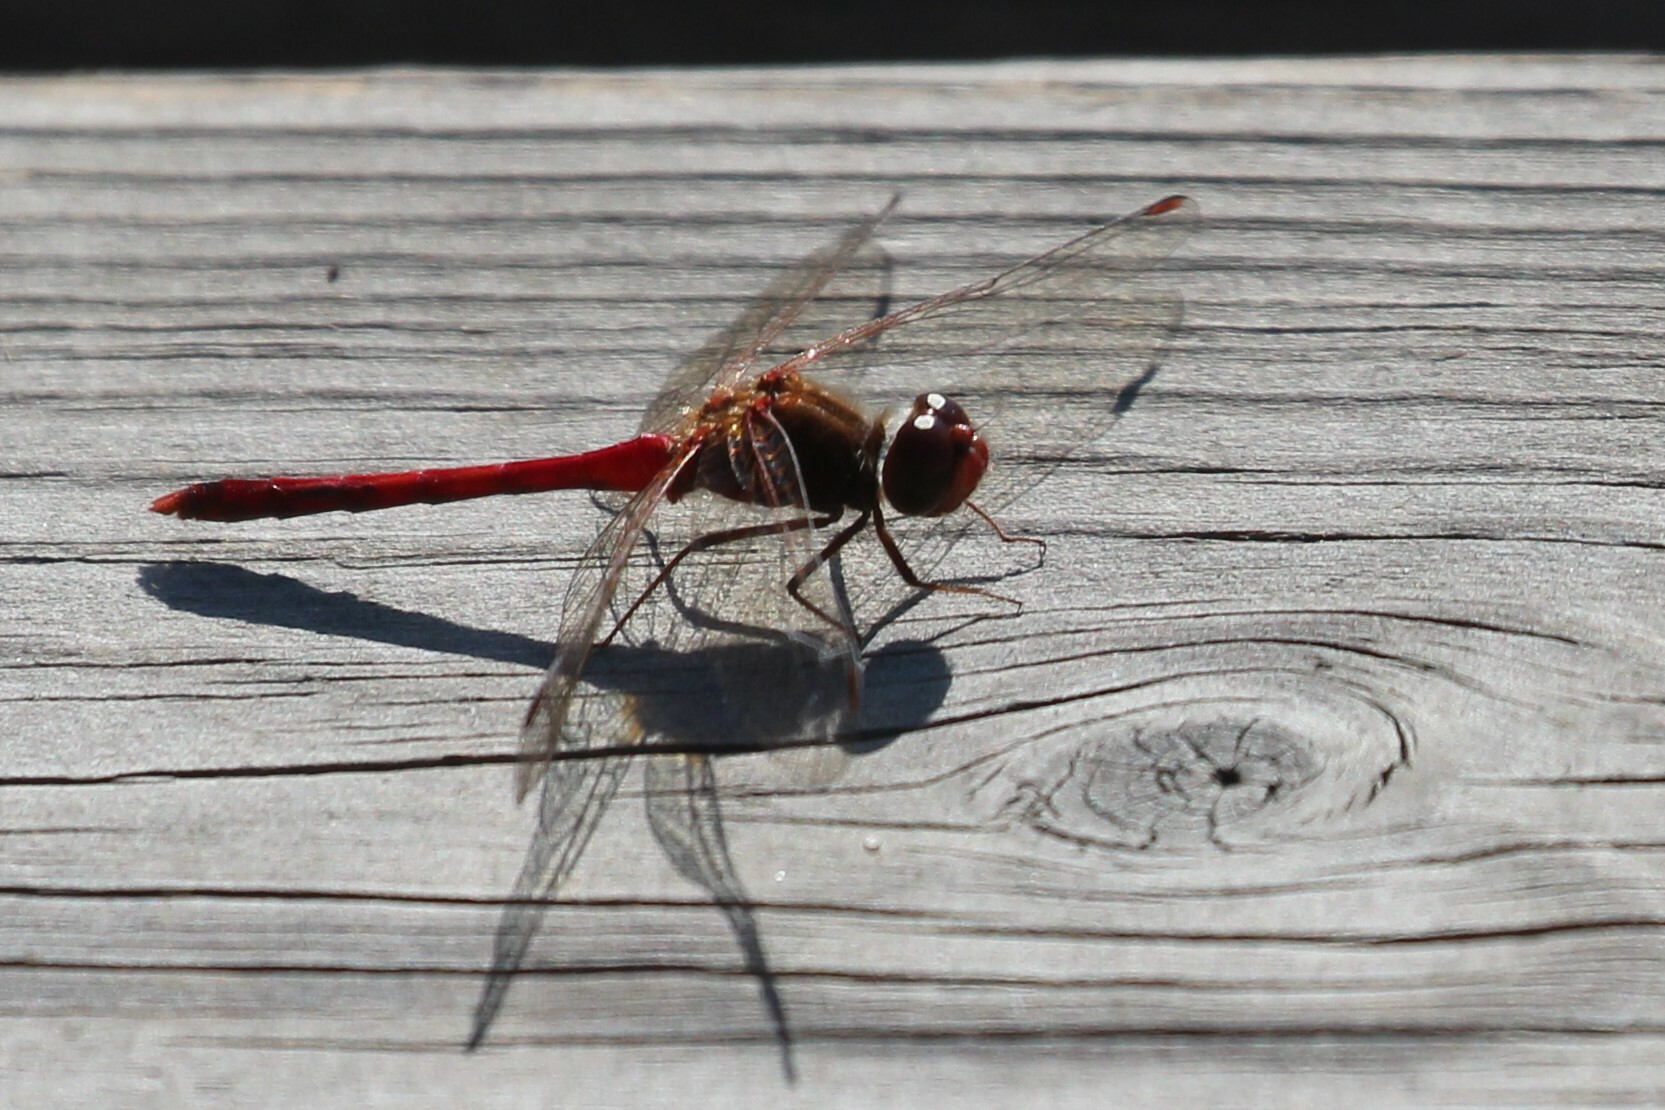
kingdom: Animalia
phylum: Arthropoda
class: Insecta
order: Odonata
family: Libellulidae
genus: Sympetrum
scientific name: Sympetrum vicinum
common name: Autumn meadowhawk
